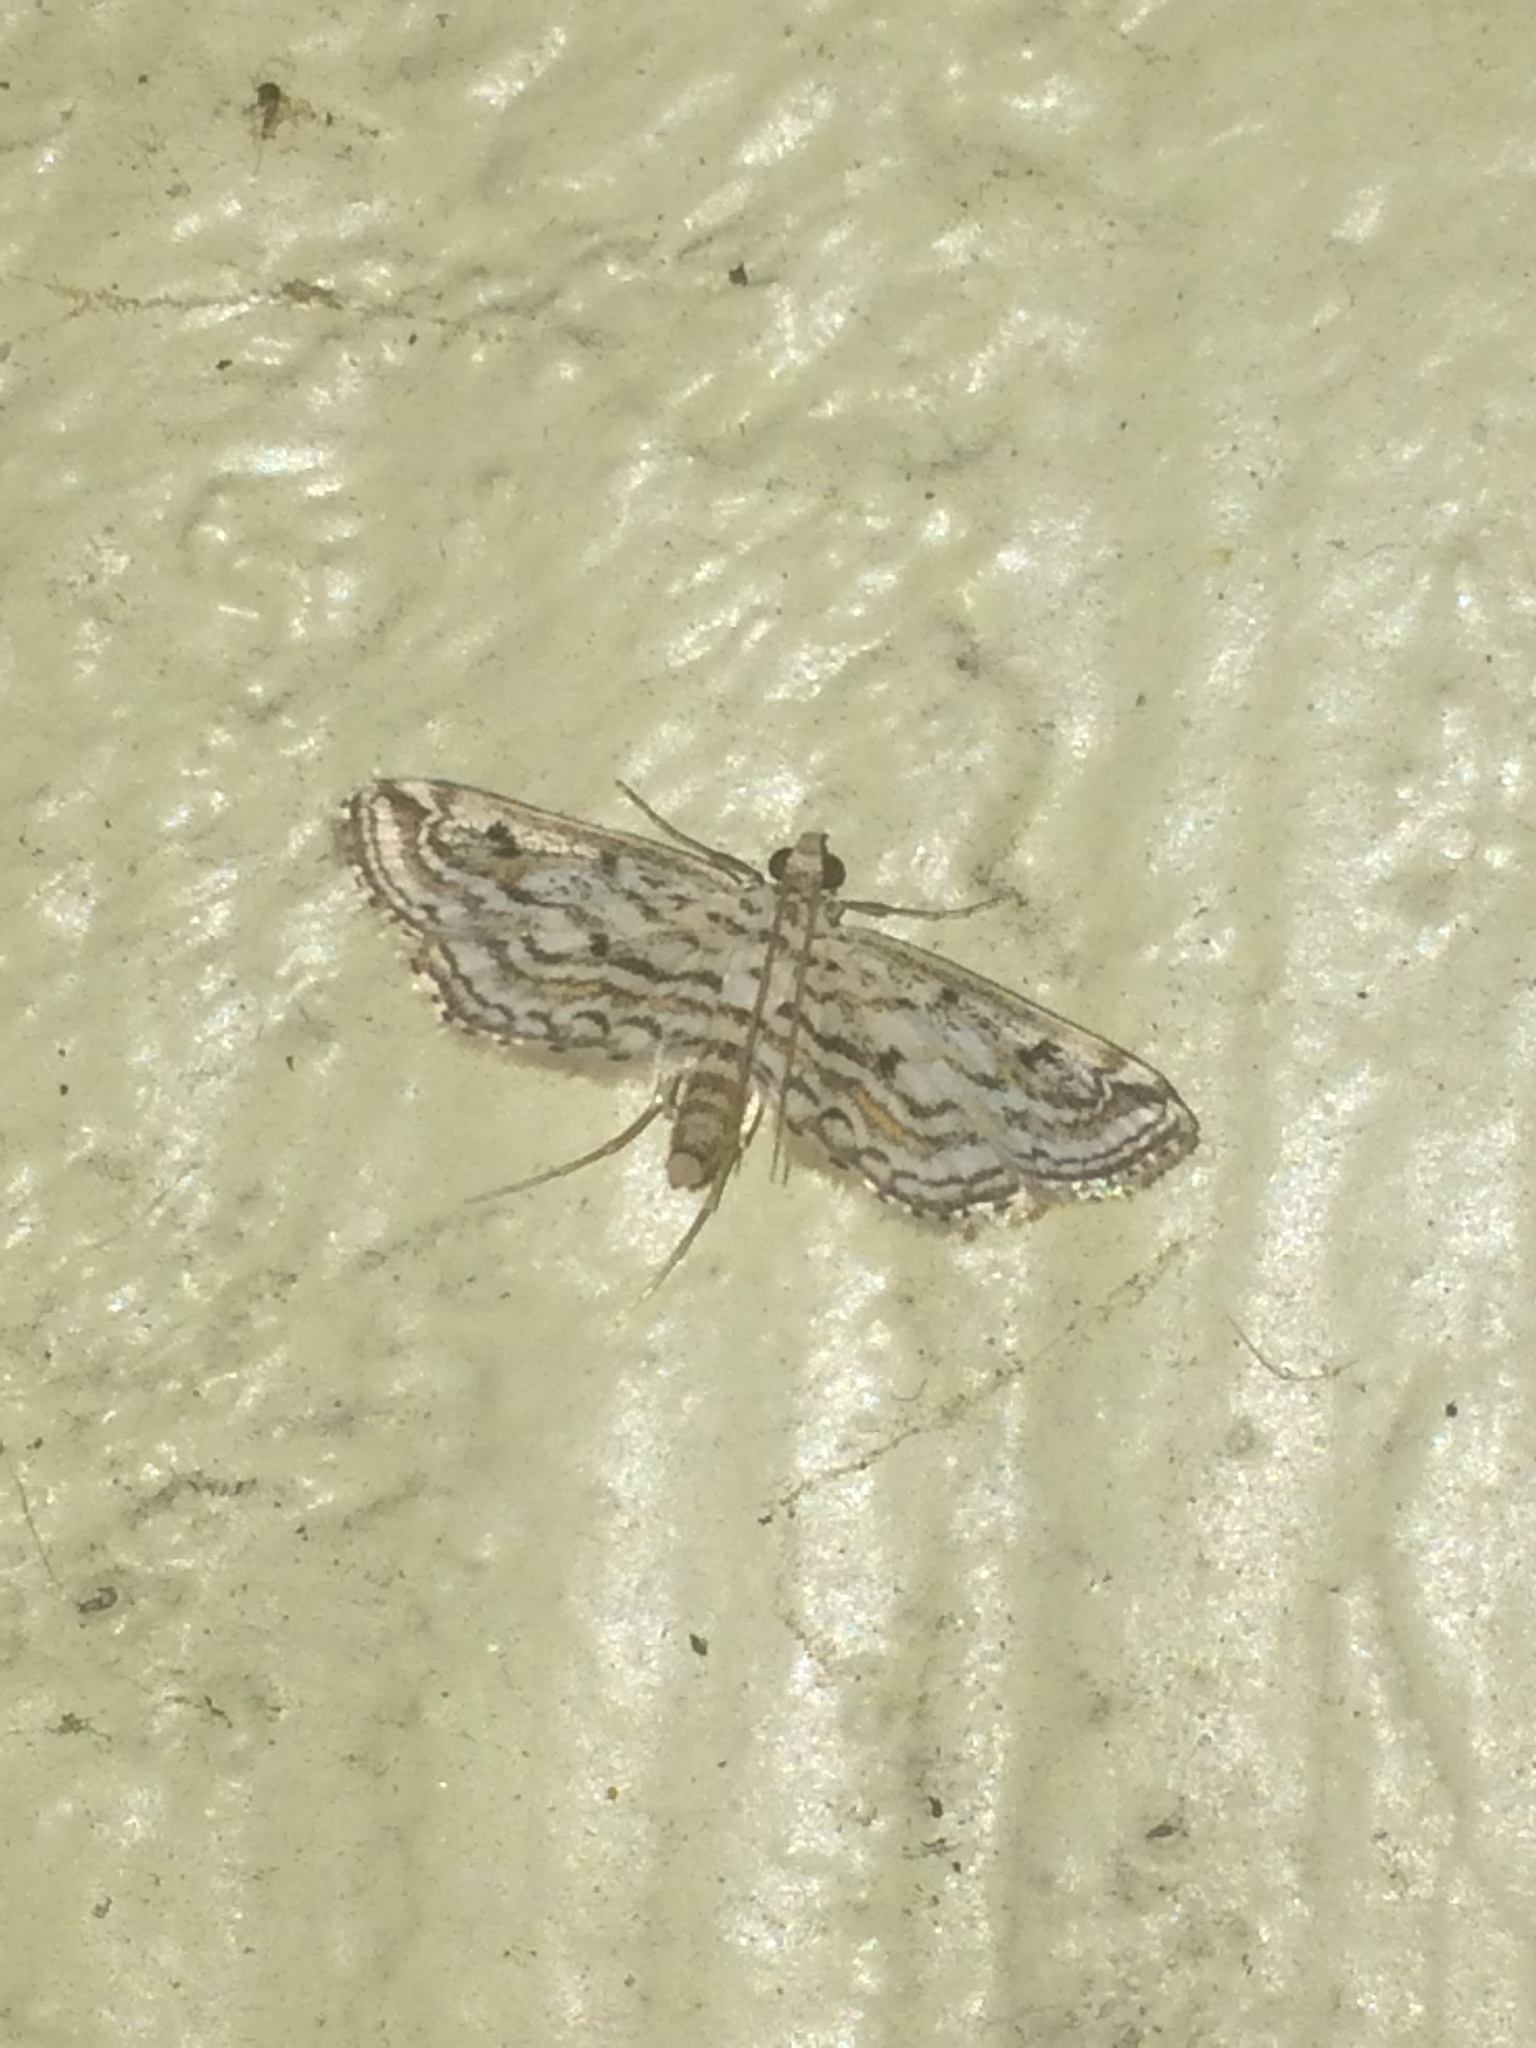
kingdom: Animalia
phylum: Arthropoda
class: Insecta
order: Lepidoptera
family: Crambidae
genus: Parapoynx
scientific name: Parapoynx allionealis
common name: Bladderwort casemaker
